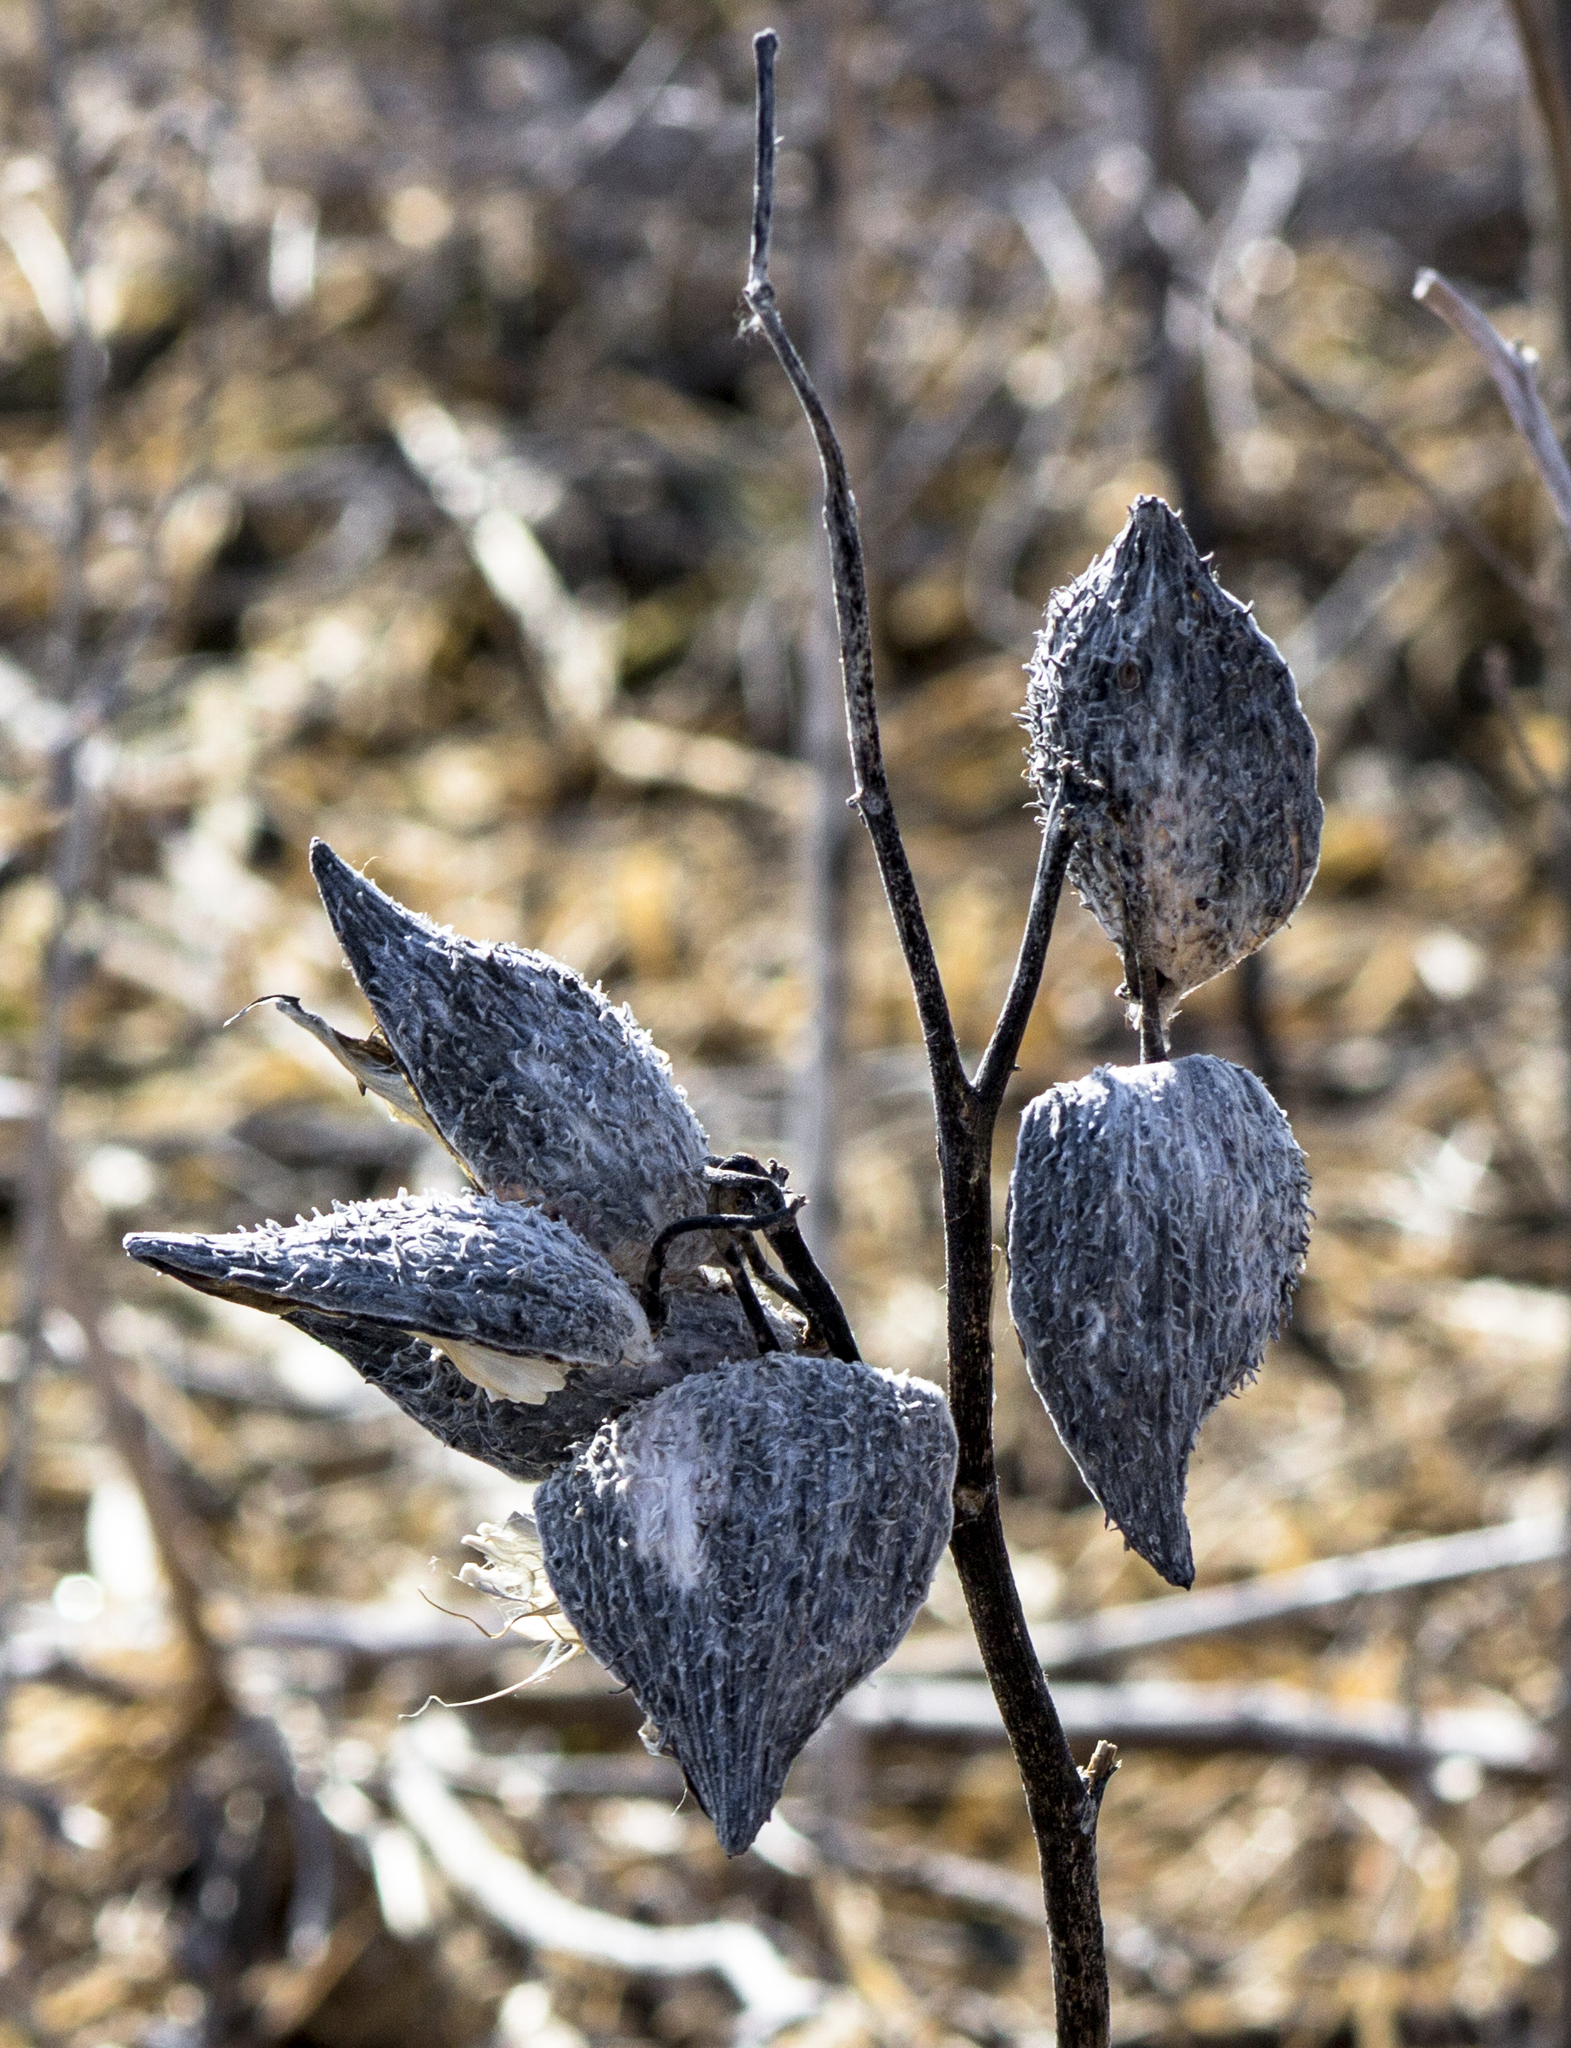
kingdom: Plantae
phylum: Tracheophyta
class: Magnoliopsida
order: Gentianales
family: Apocynaceae
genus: Asclepias
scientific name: Asclepias syriaca
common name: Common milkweed
